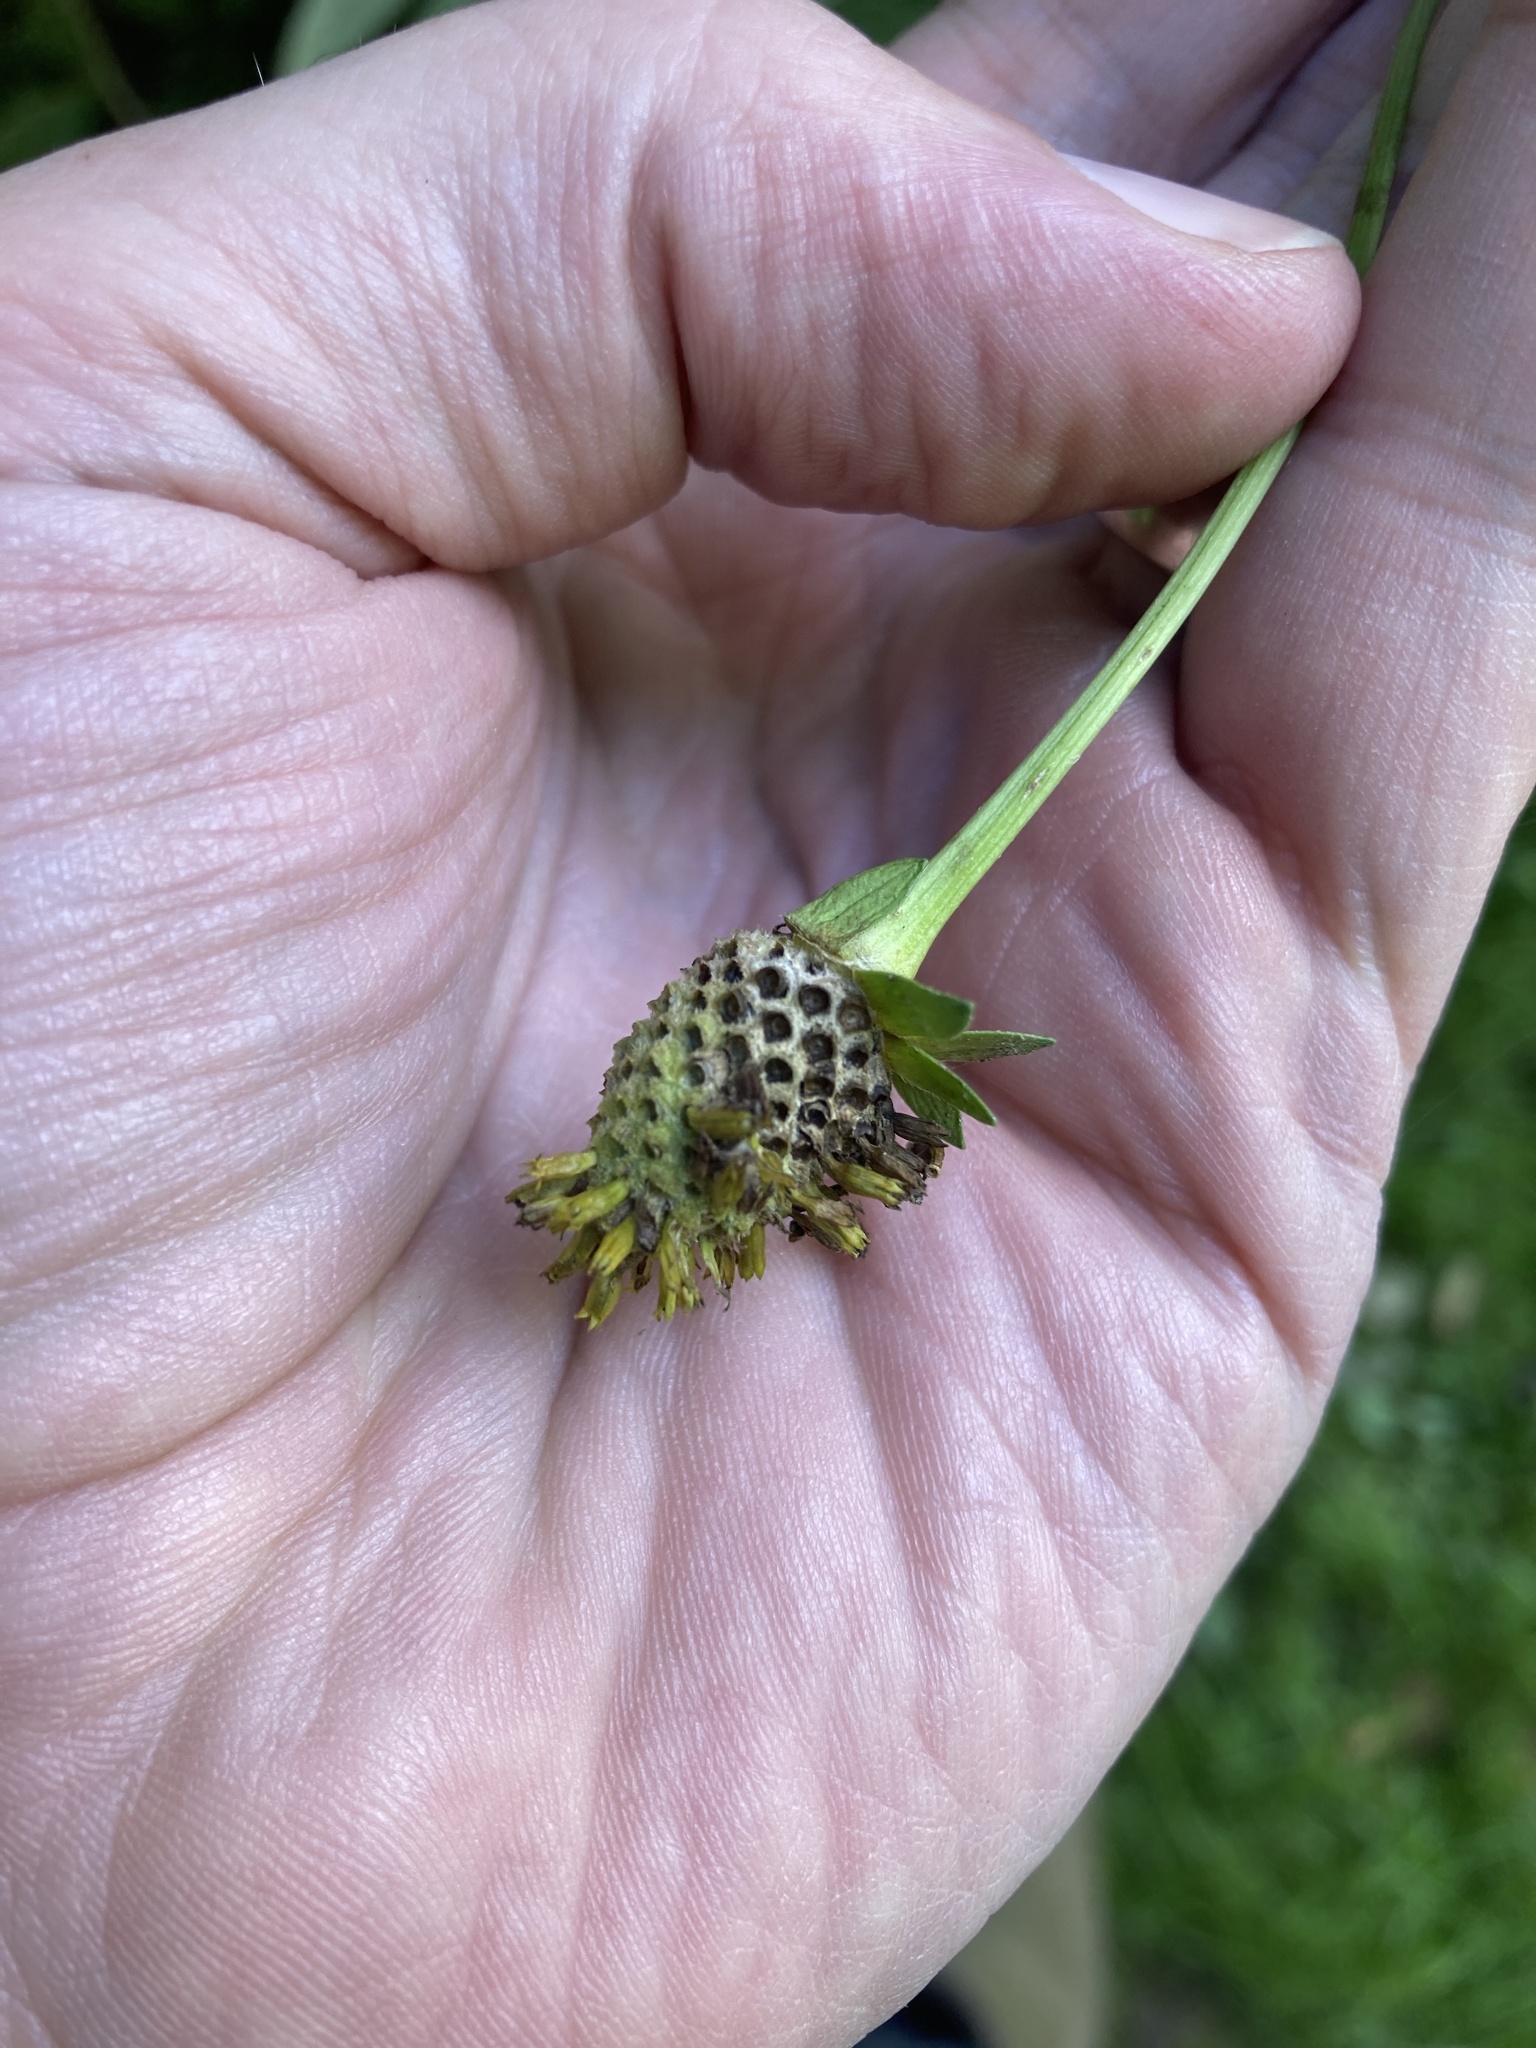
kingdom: Plantae
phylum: Tracheophyta
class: Magnoliopsida
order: Asterales
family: Asteraceae
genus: Rudbeckia
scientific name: Rudbeckia laciniata
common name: Coneflower
